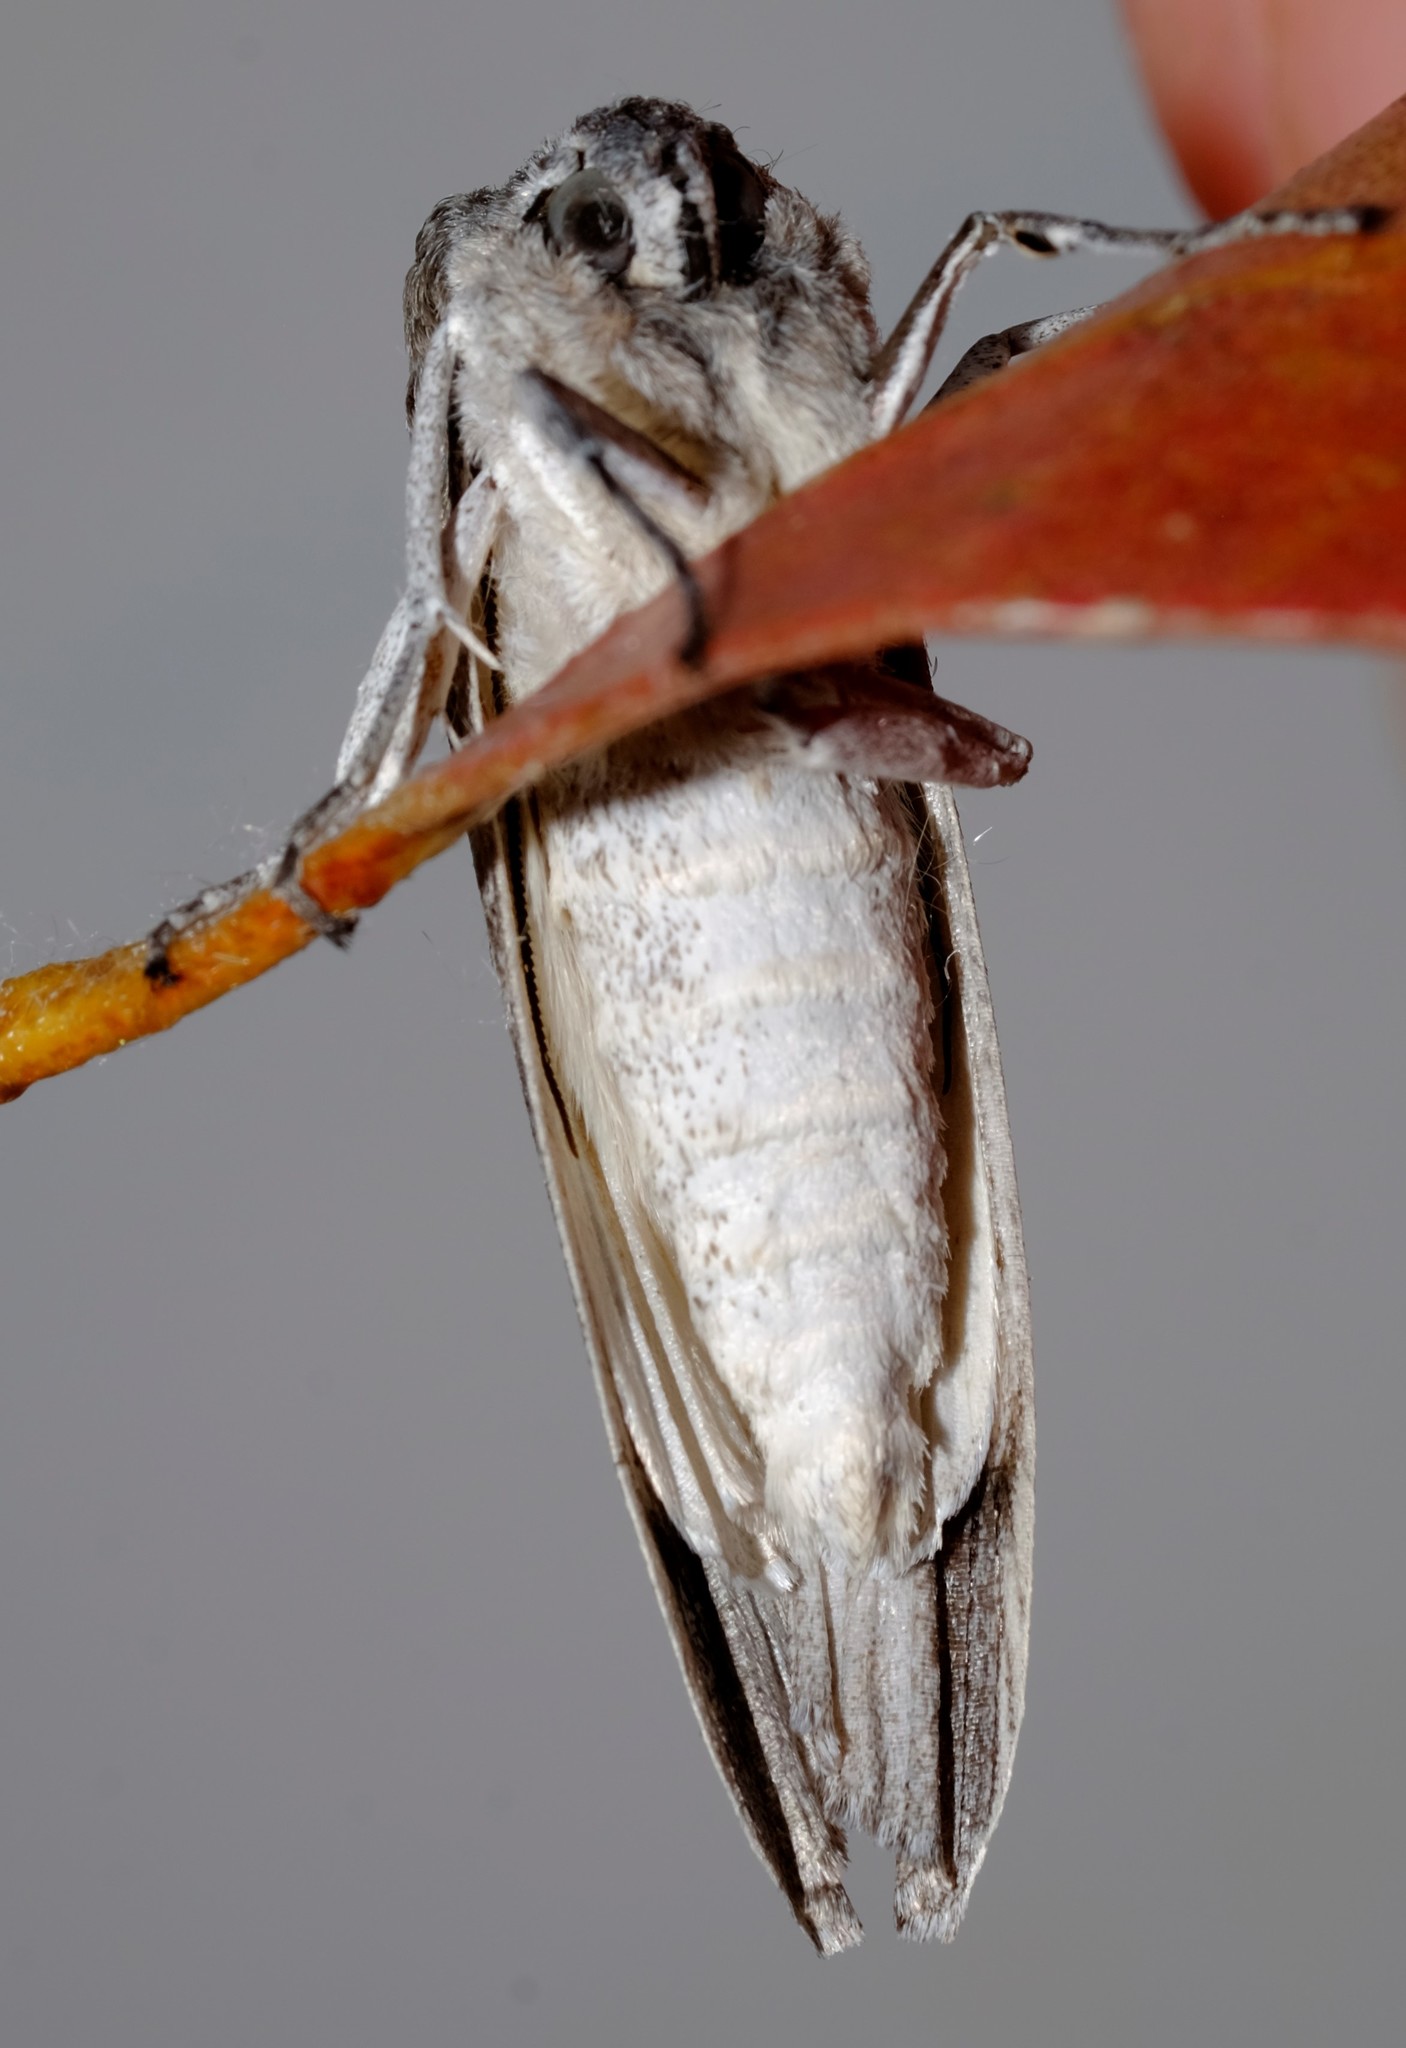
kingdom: Animalia
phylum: Arthropoda
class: Insecta
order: Lepidoptera
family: Geometridae
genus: Capusa
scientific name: Capusa cuculloides
